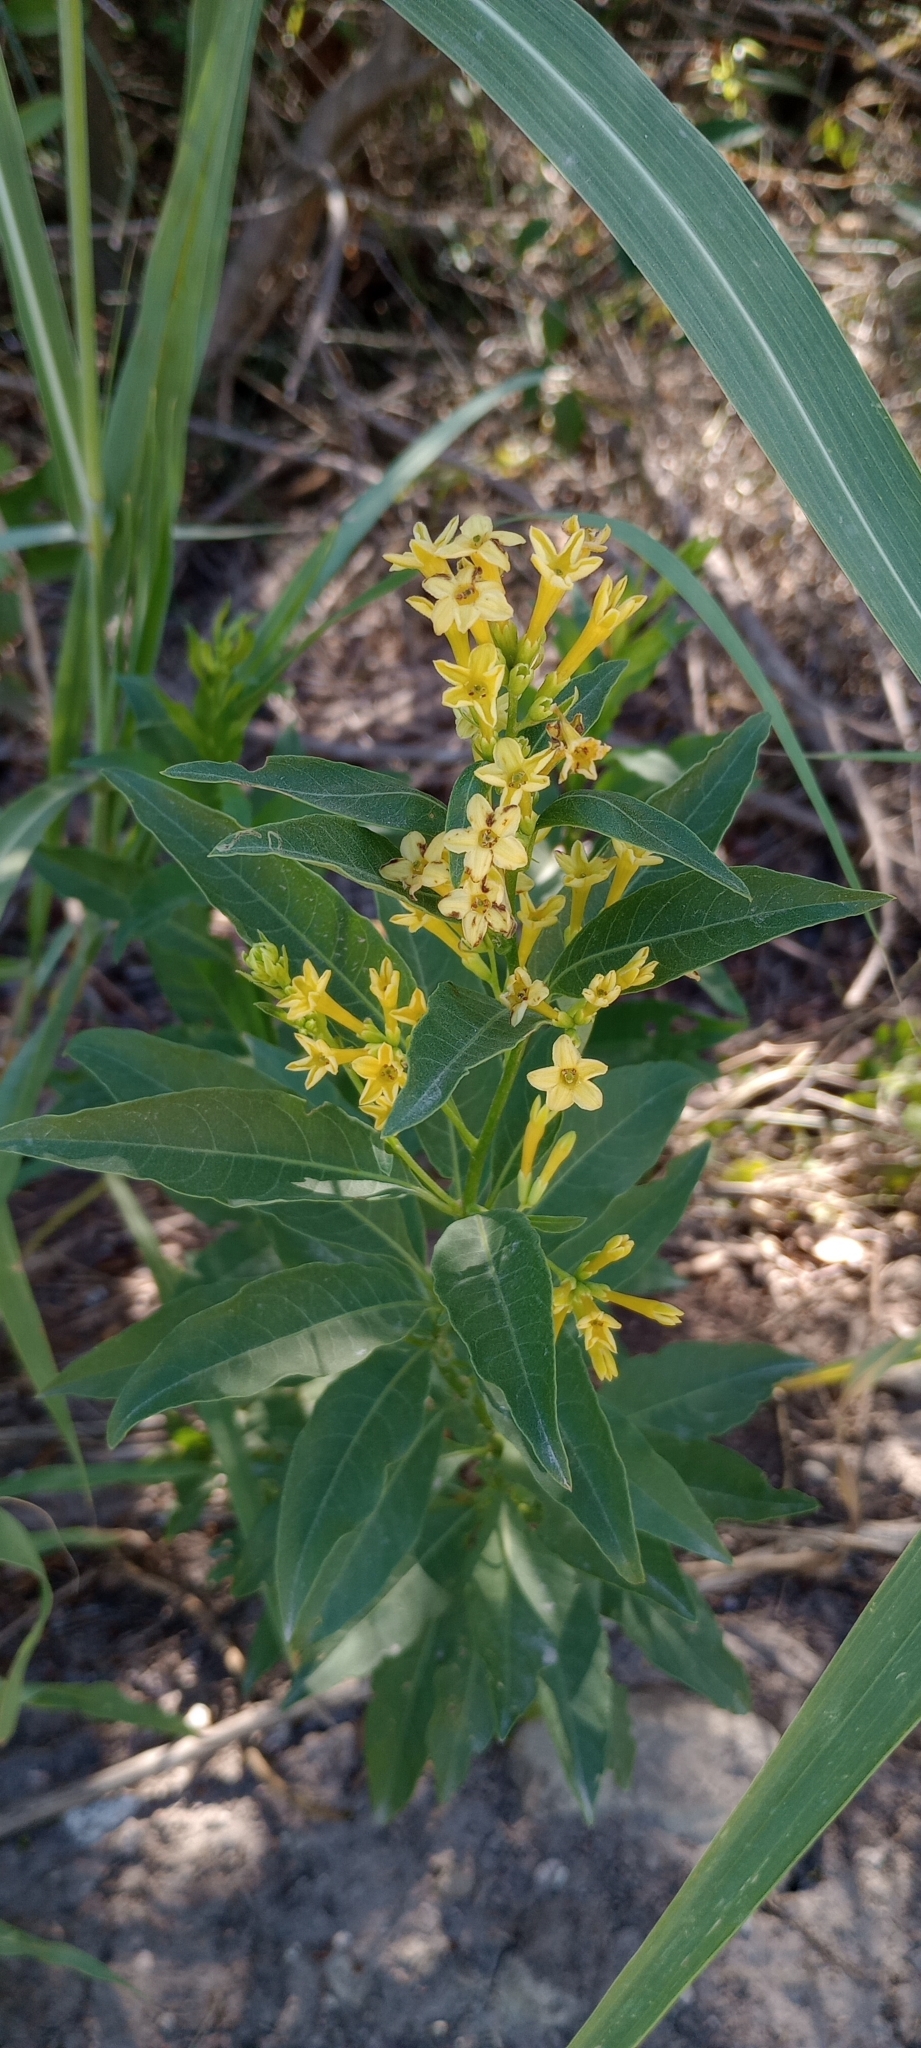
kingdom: Plantae
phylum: Tracheophyta
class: Magnoliopsida
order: Solanales
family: Solanaceae
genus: Cestrum
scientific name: Cestrum parqui
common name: Chilean cestrum
